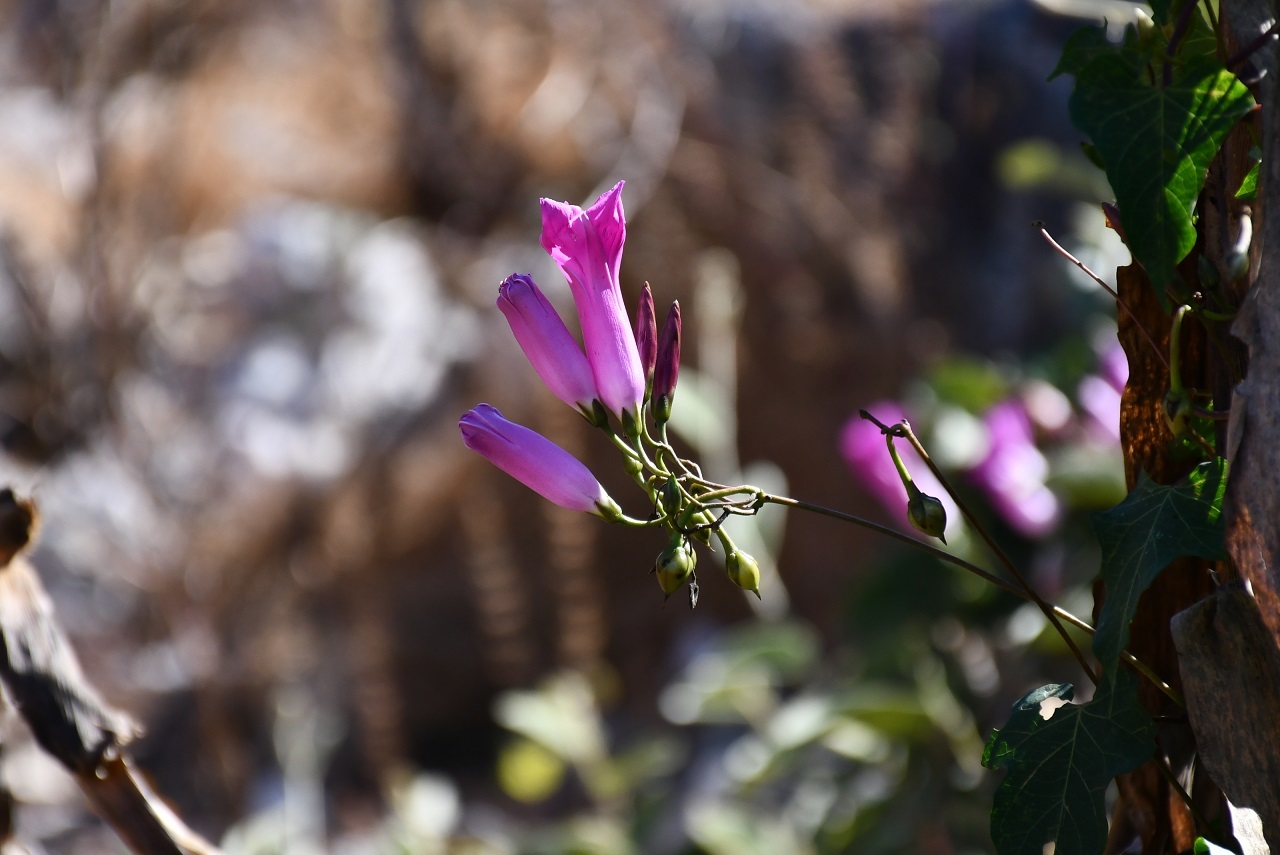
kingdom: Plantae
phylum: Tracheophyta
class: Magnoliopsida
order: Solanales
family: Convolvulaceae
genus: Ipomoea
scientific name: Ipomoea orizabensis
